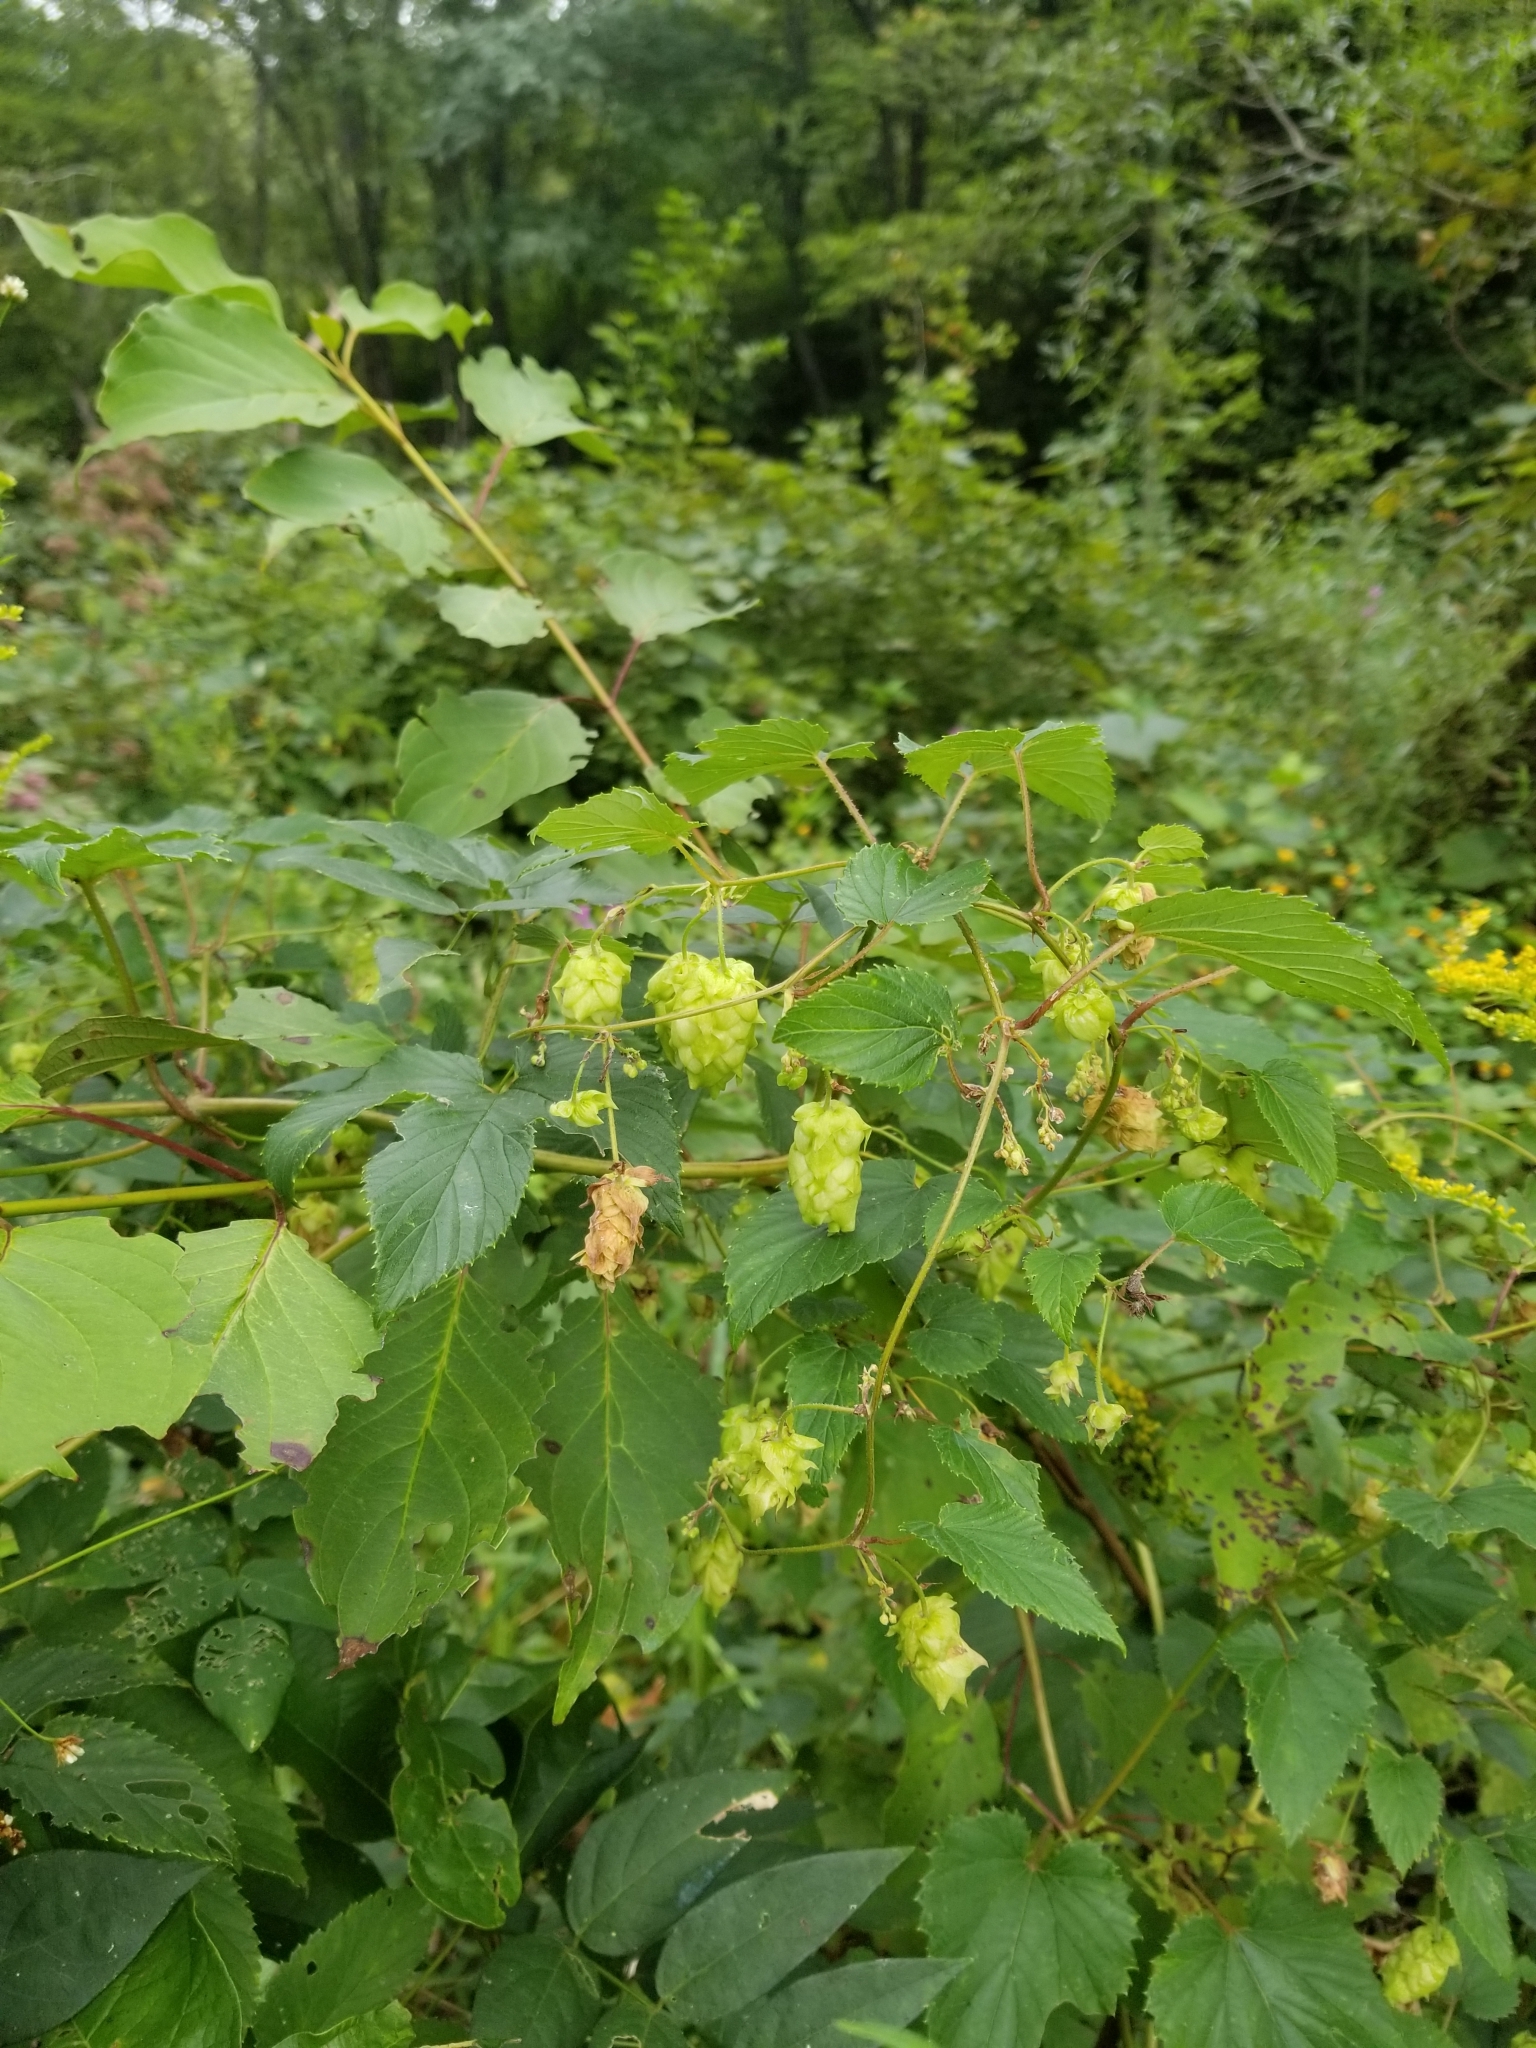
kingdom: Plantae
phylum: Tracheophyta
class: Magnoliopsida
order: Rosales
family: Cannabaceae
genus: Humulus
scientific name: Humulus lupulus
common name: Hop
